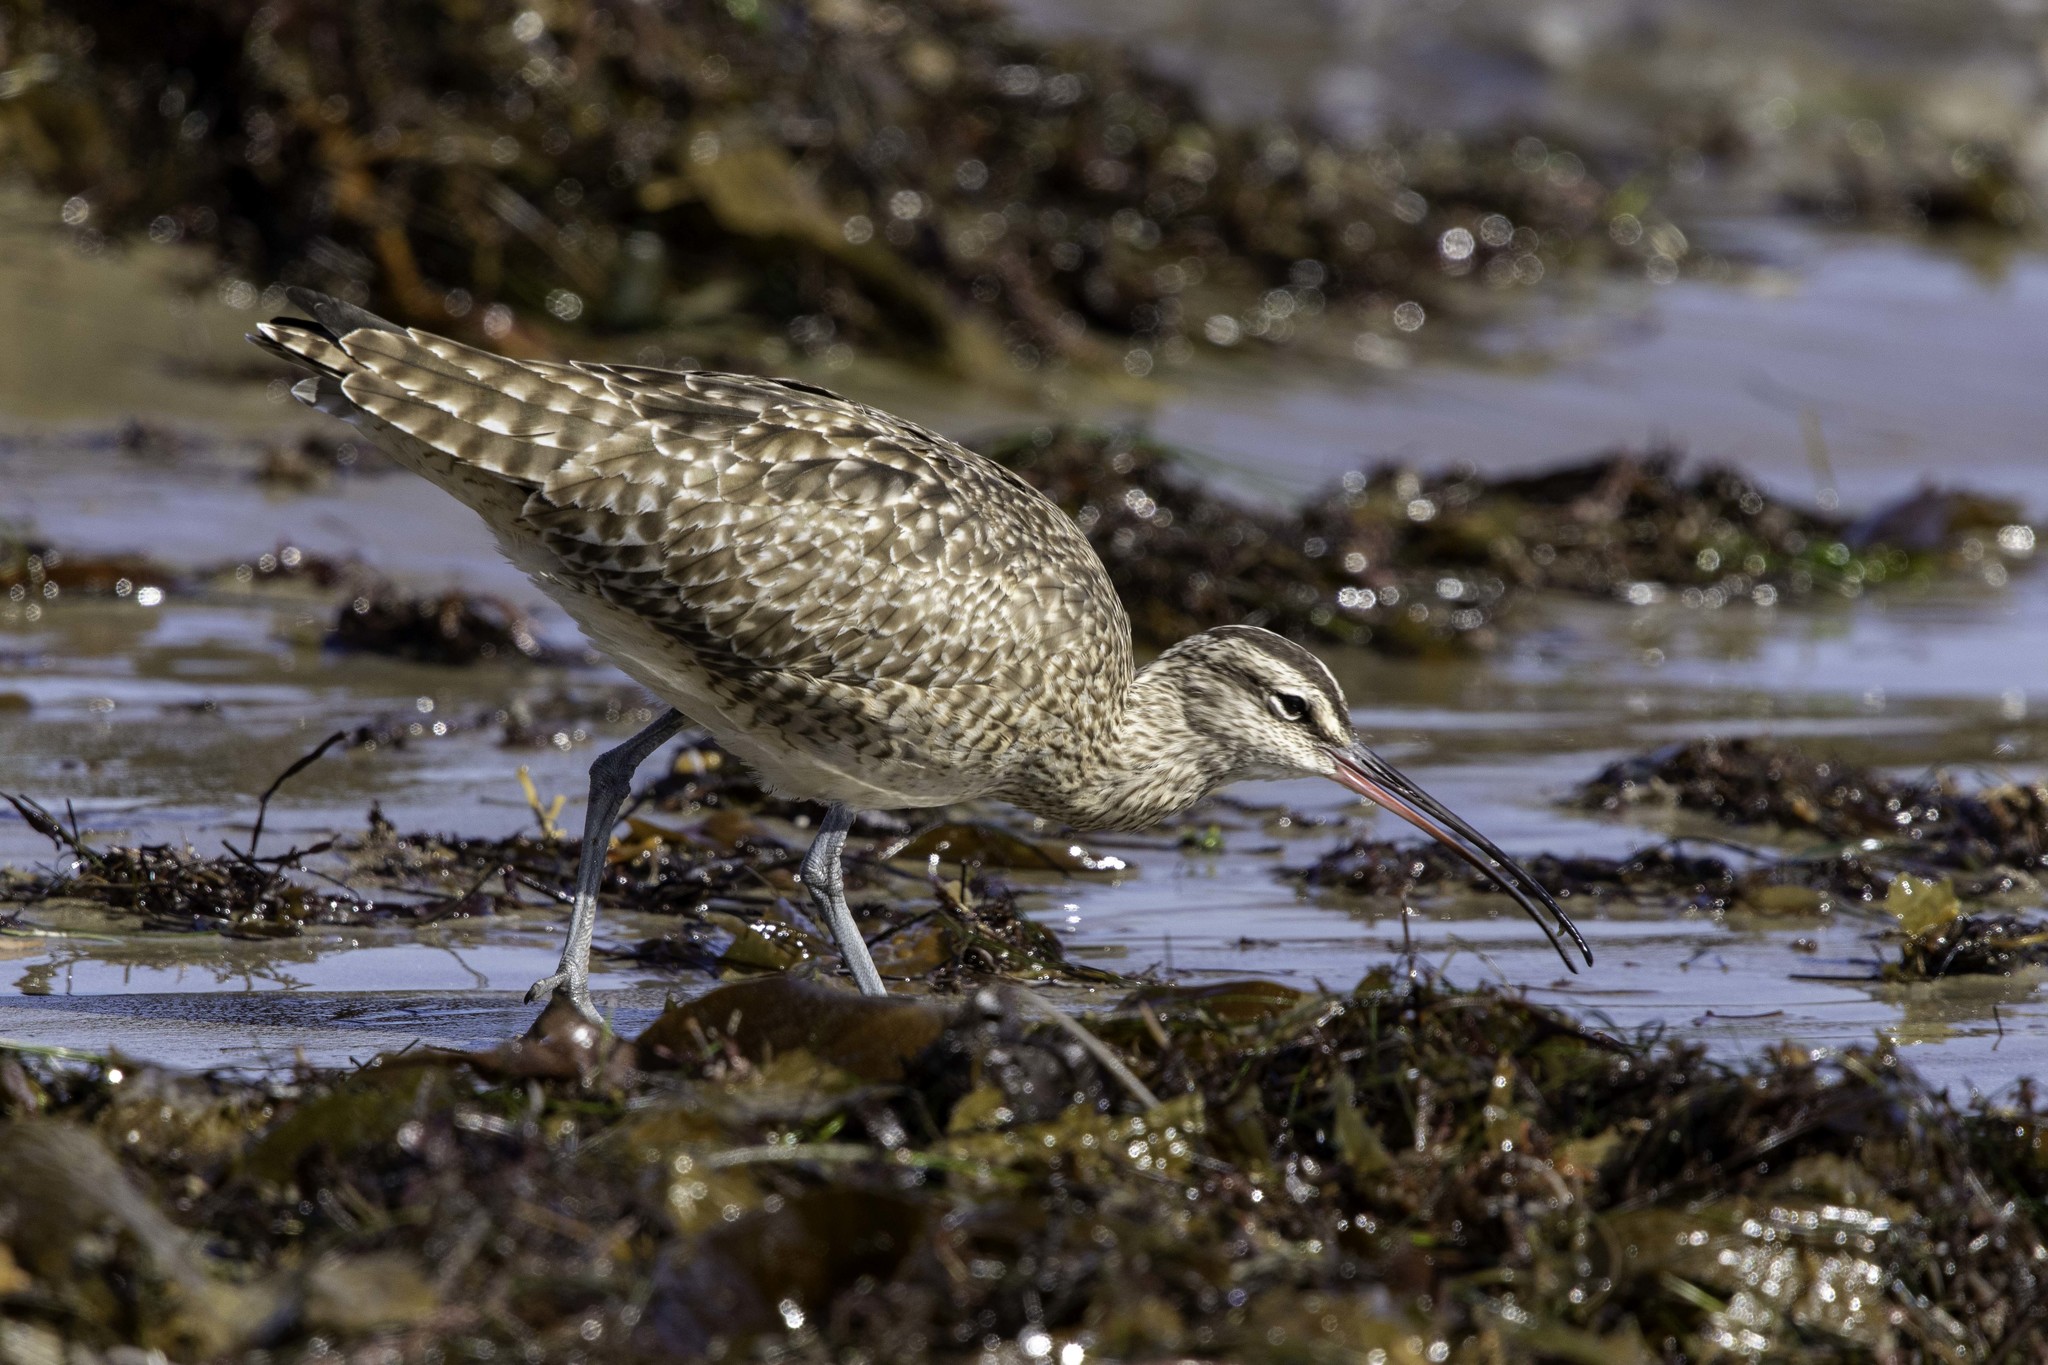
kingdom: Animalia
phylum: Chordata
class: Aves
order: Charadriiformes
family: Scolopacidae
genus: Numenius
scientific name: Numenius phaeopus
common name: Whimbrel
